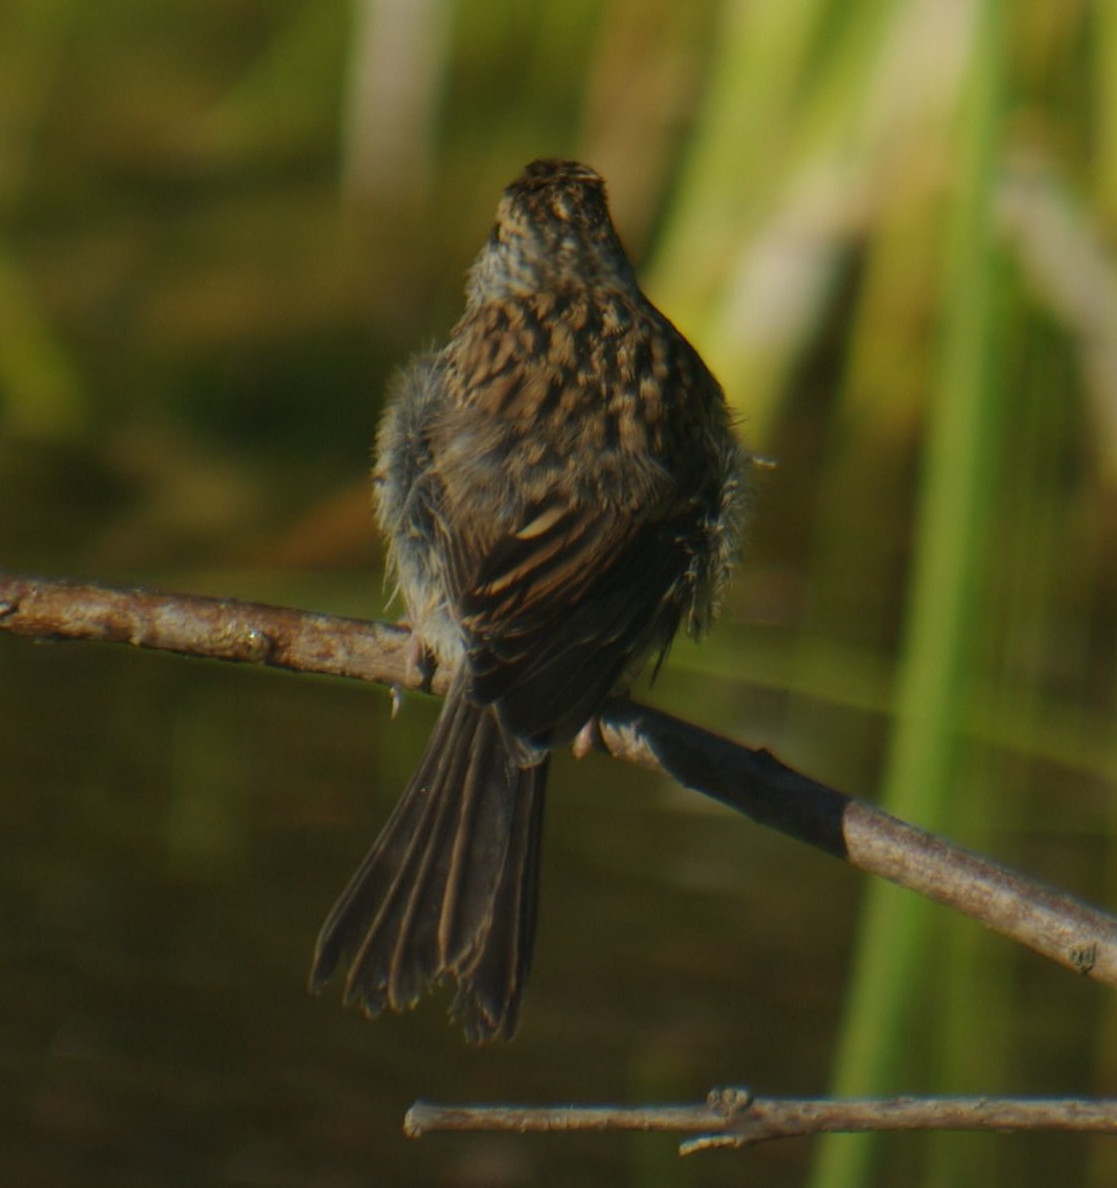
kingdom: Animalia
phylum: Chordata
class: Aves
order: Passeriformes
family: Passerellidae
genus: Spizella
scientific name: Spizella passerina
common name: Chipping sparrow
